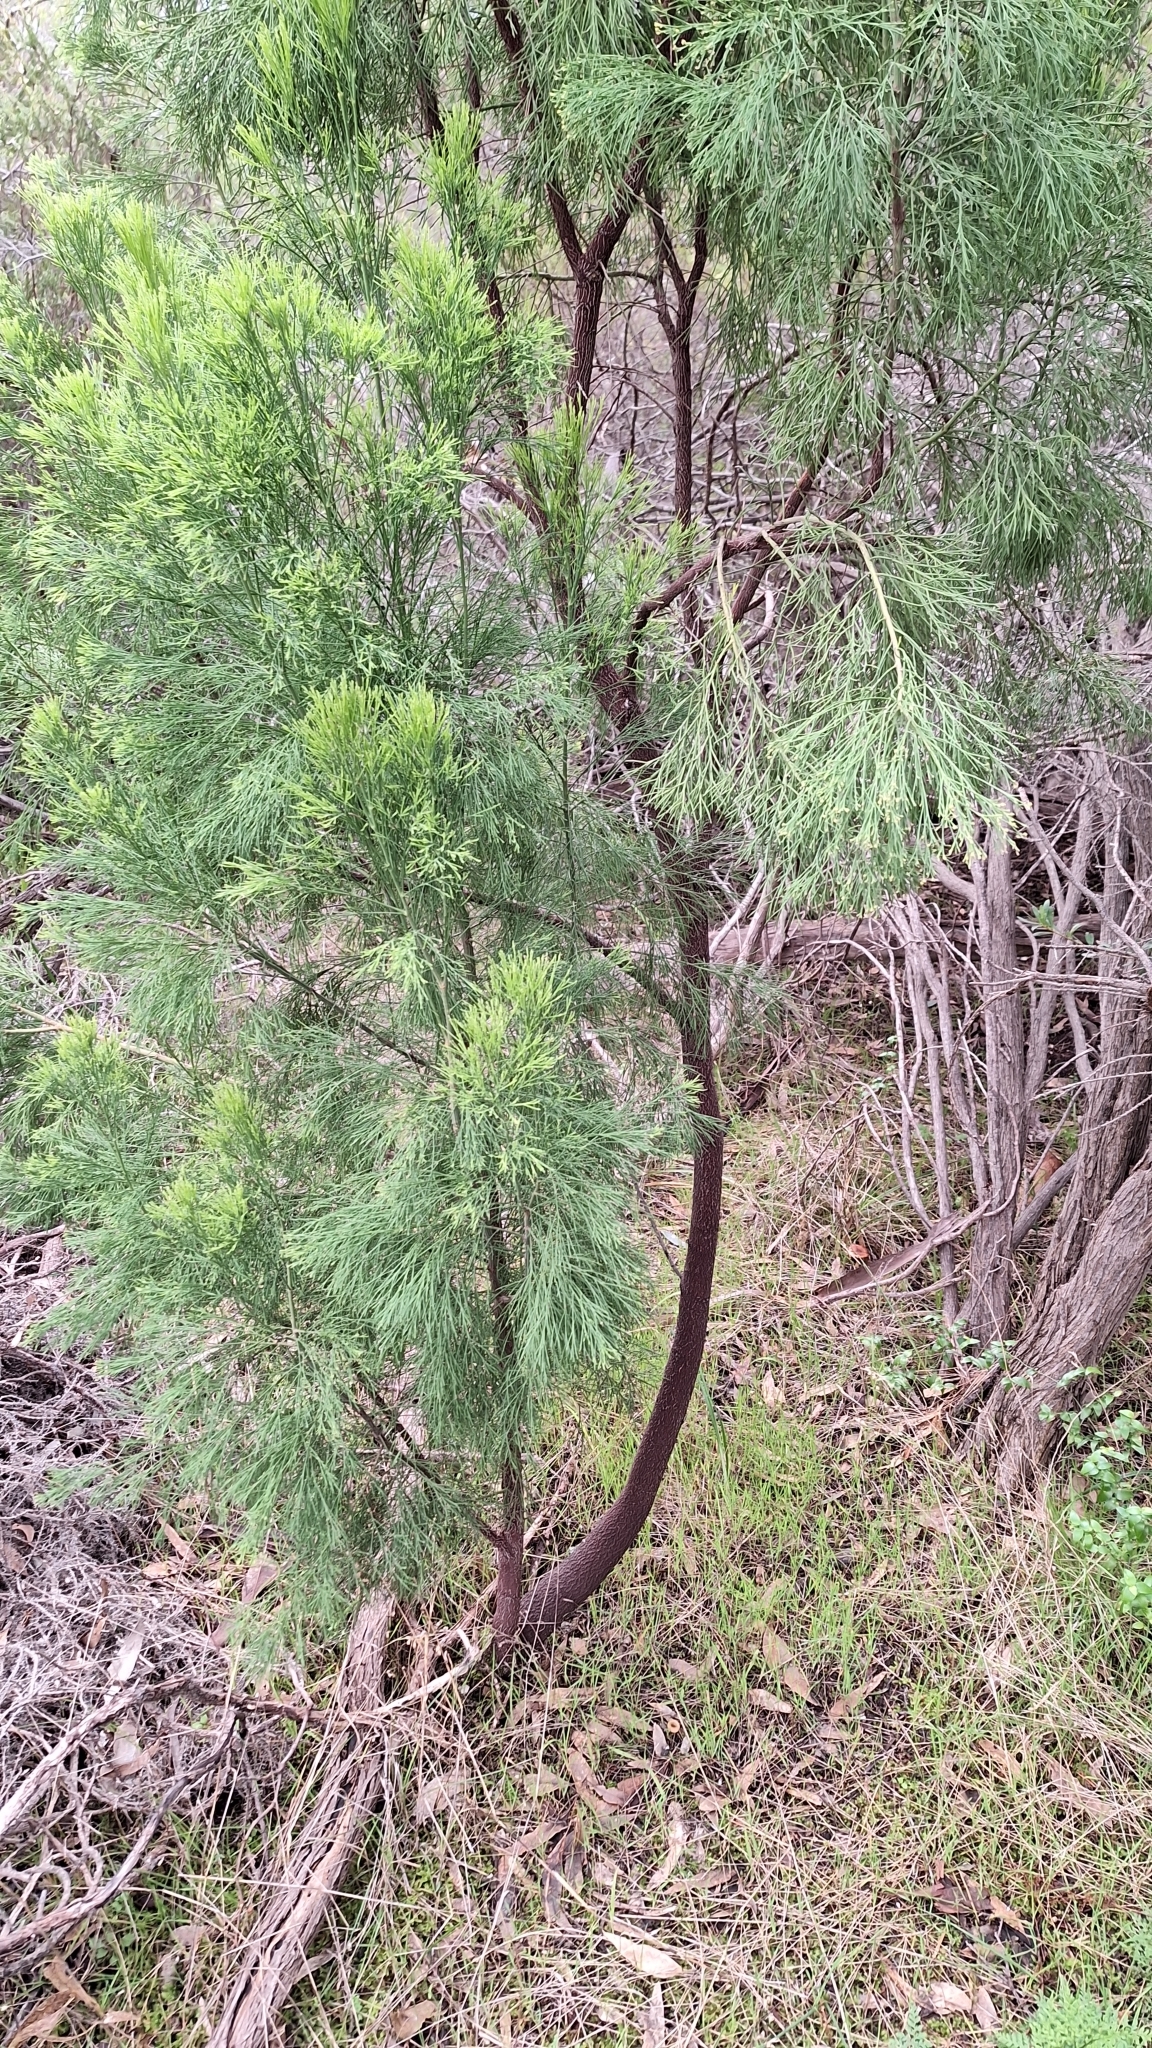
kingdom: Plantae
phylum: Tracheophyta
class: Magnoliopsida
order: Santalales
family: Santalaceae
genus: Exocarpos
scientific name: Exocarpos cupressiformis
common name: Cherry ballart
